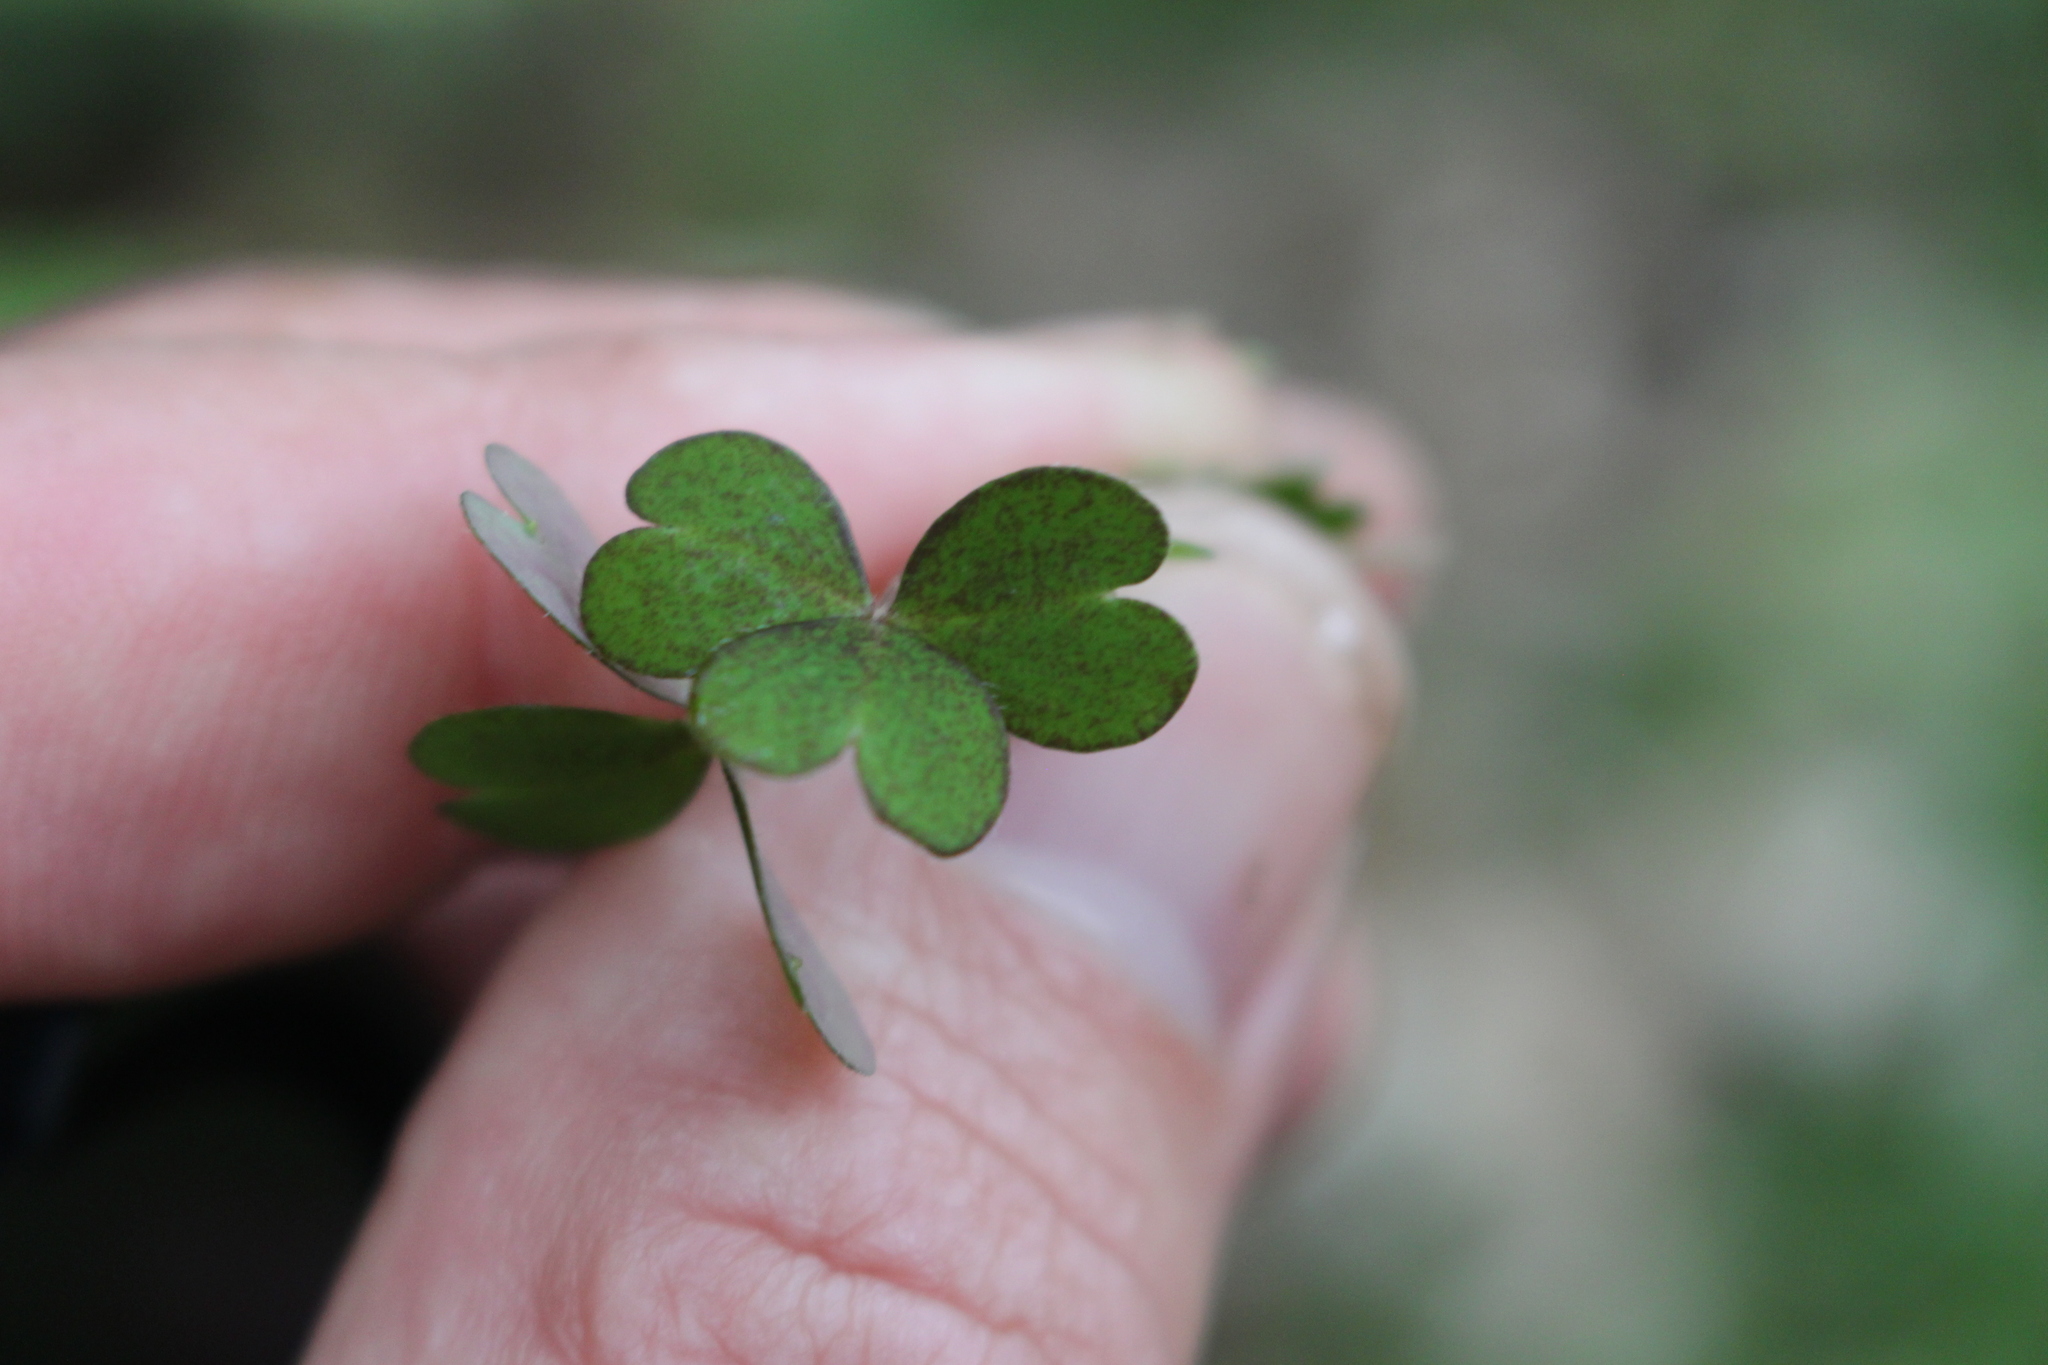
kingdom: Plantae
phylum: Tracheophyta
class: Magnoliopsida
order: Oxalidales
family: Oxalidaceae
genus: Oxalis
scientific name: Oxalis magellanica
